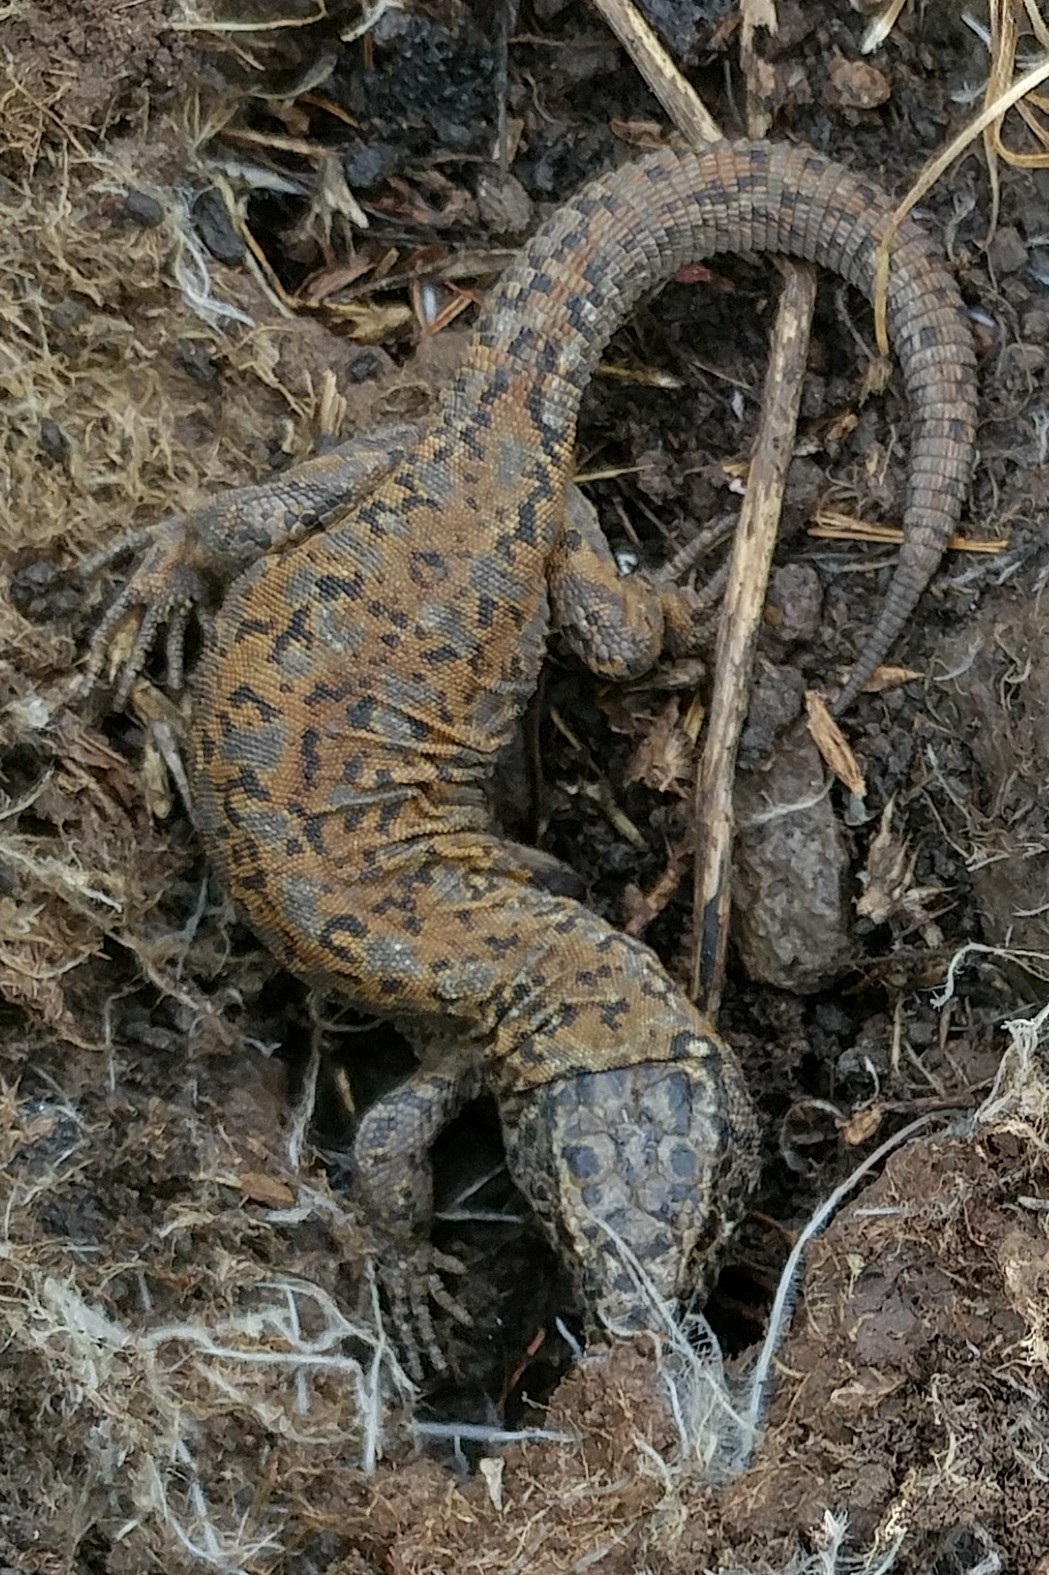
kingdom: Animalia
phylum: Chordata
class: Squamata
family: Xantusiidae
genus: Xantusia
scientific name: Xantusia riversiana
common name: Island night lizard
